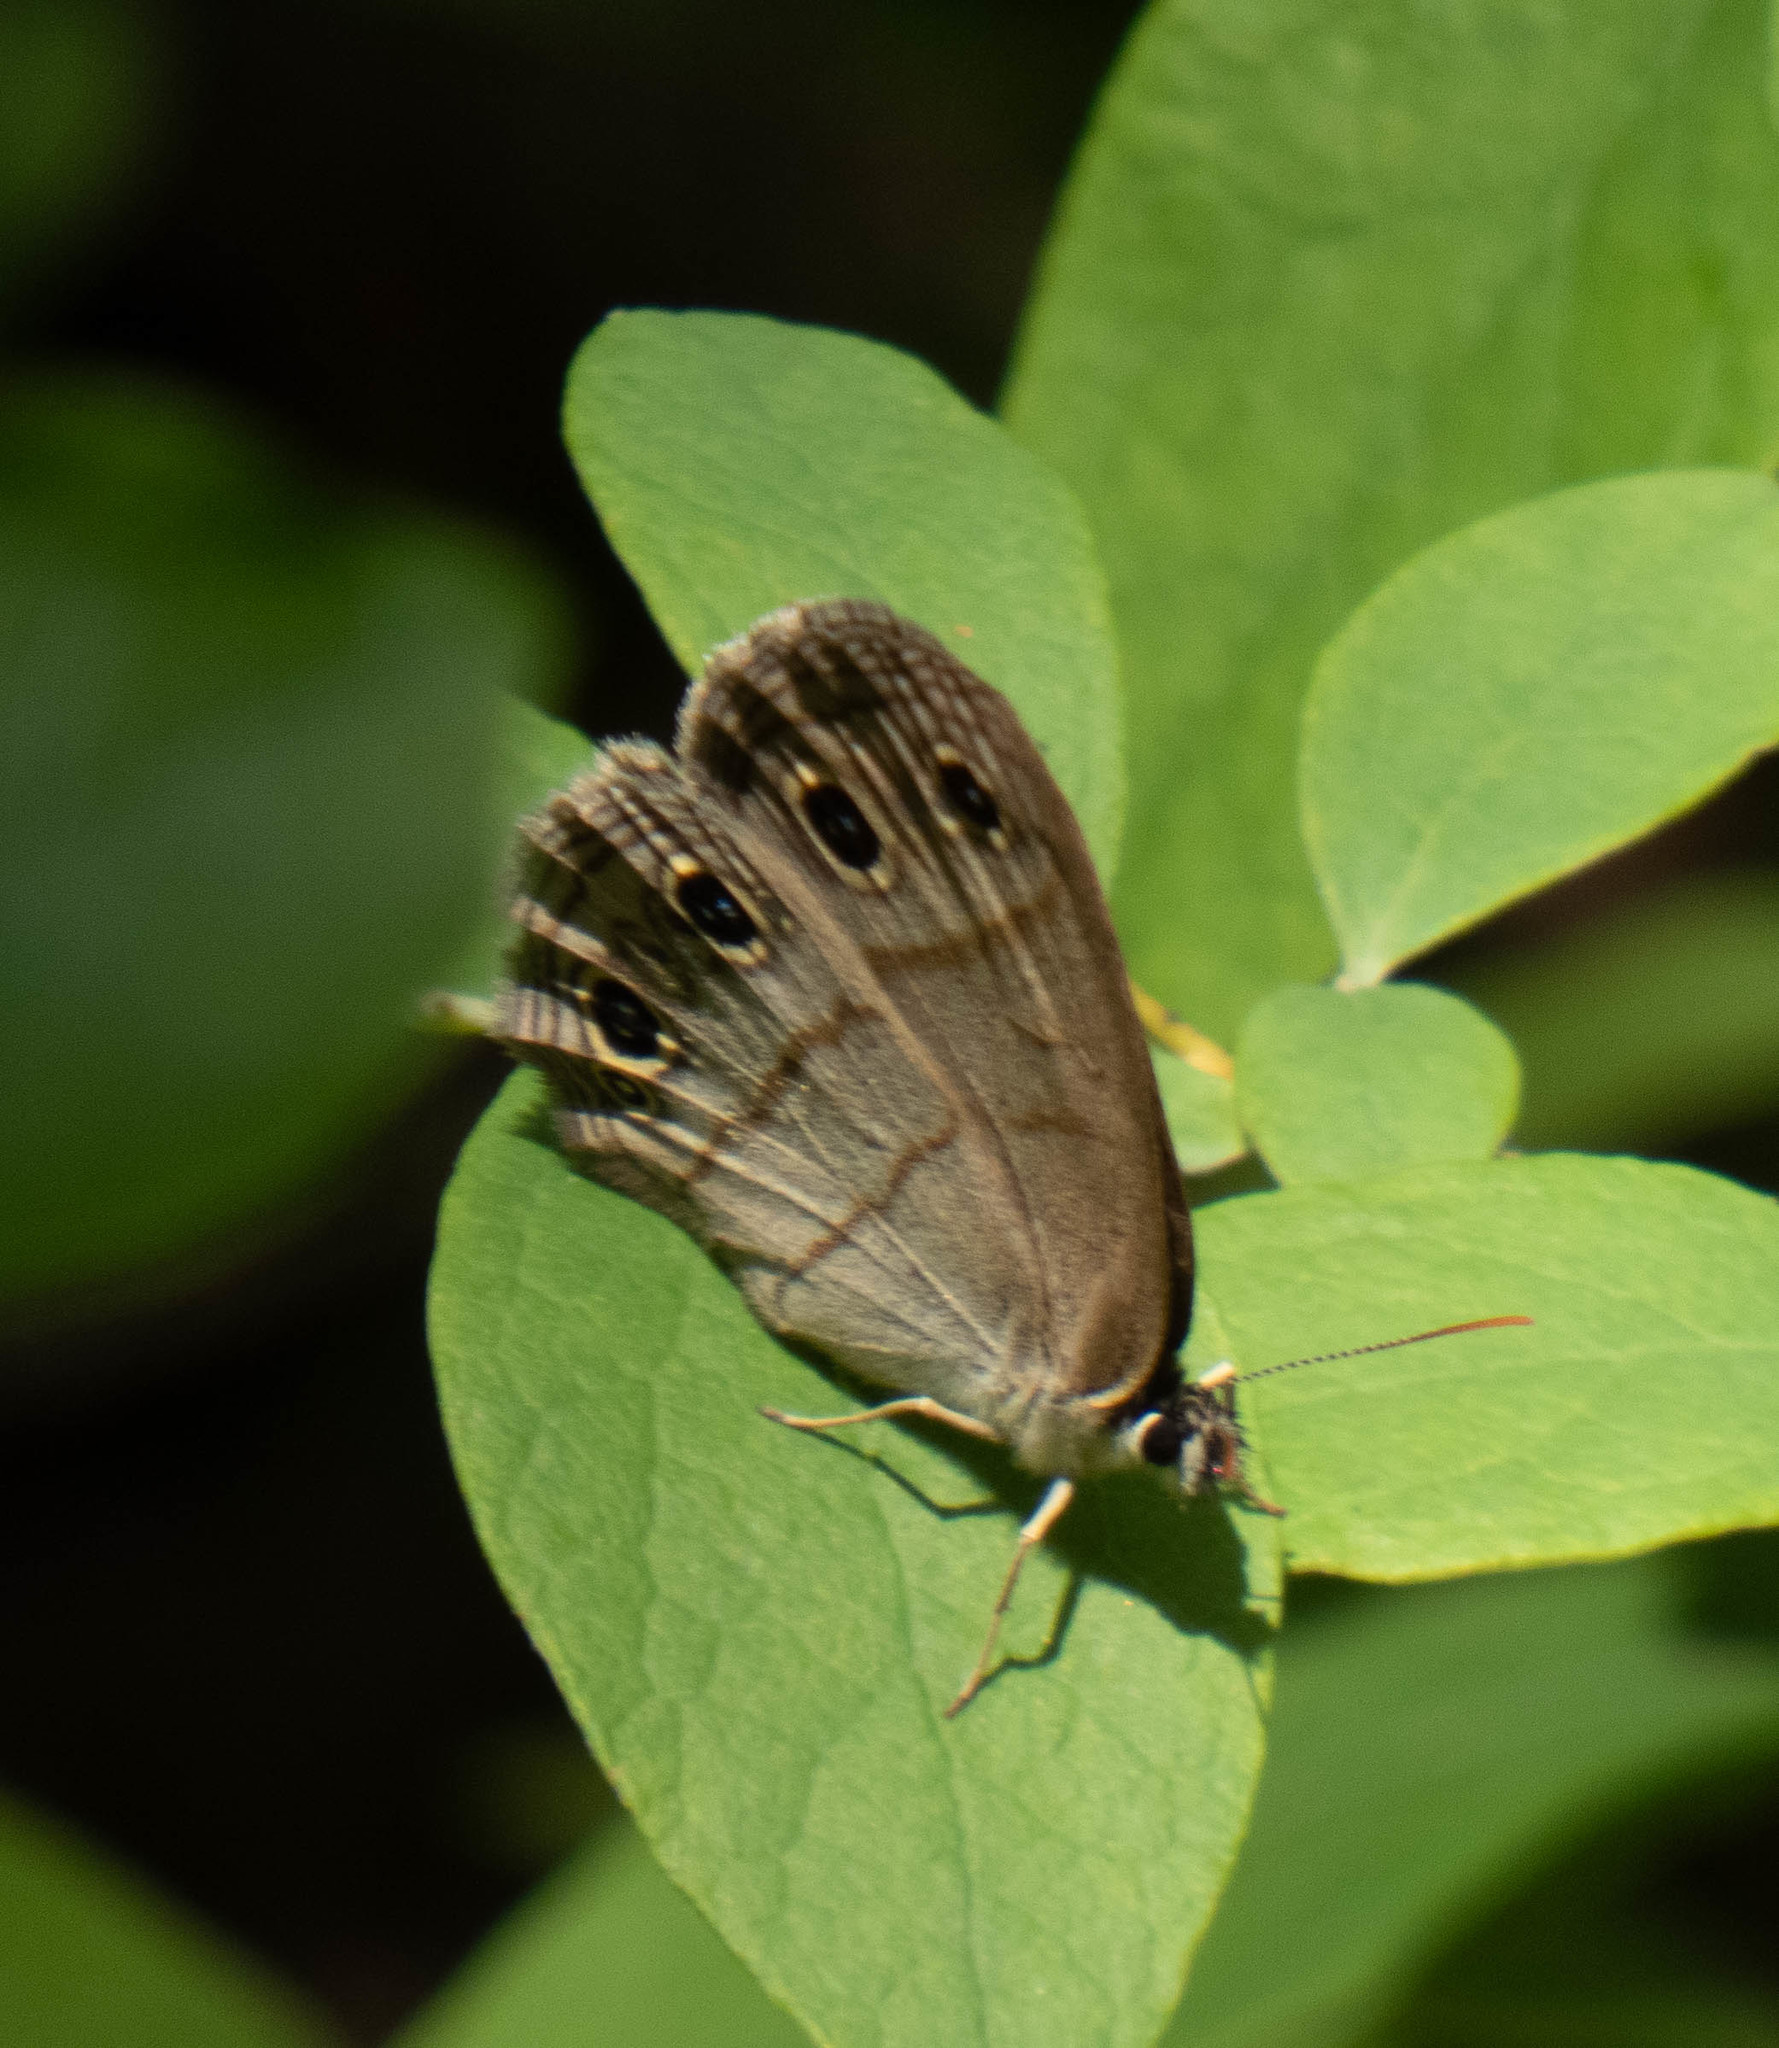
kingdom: Animalia
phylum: Arthropoda
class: Insecta
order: Lepidoptera
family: Nymphalidae
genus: Euptychia
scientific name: Euptychia cymela
